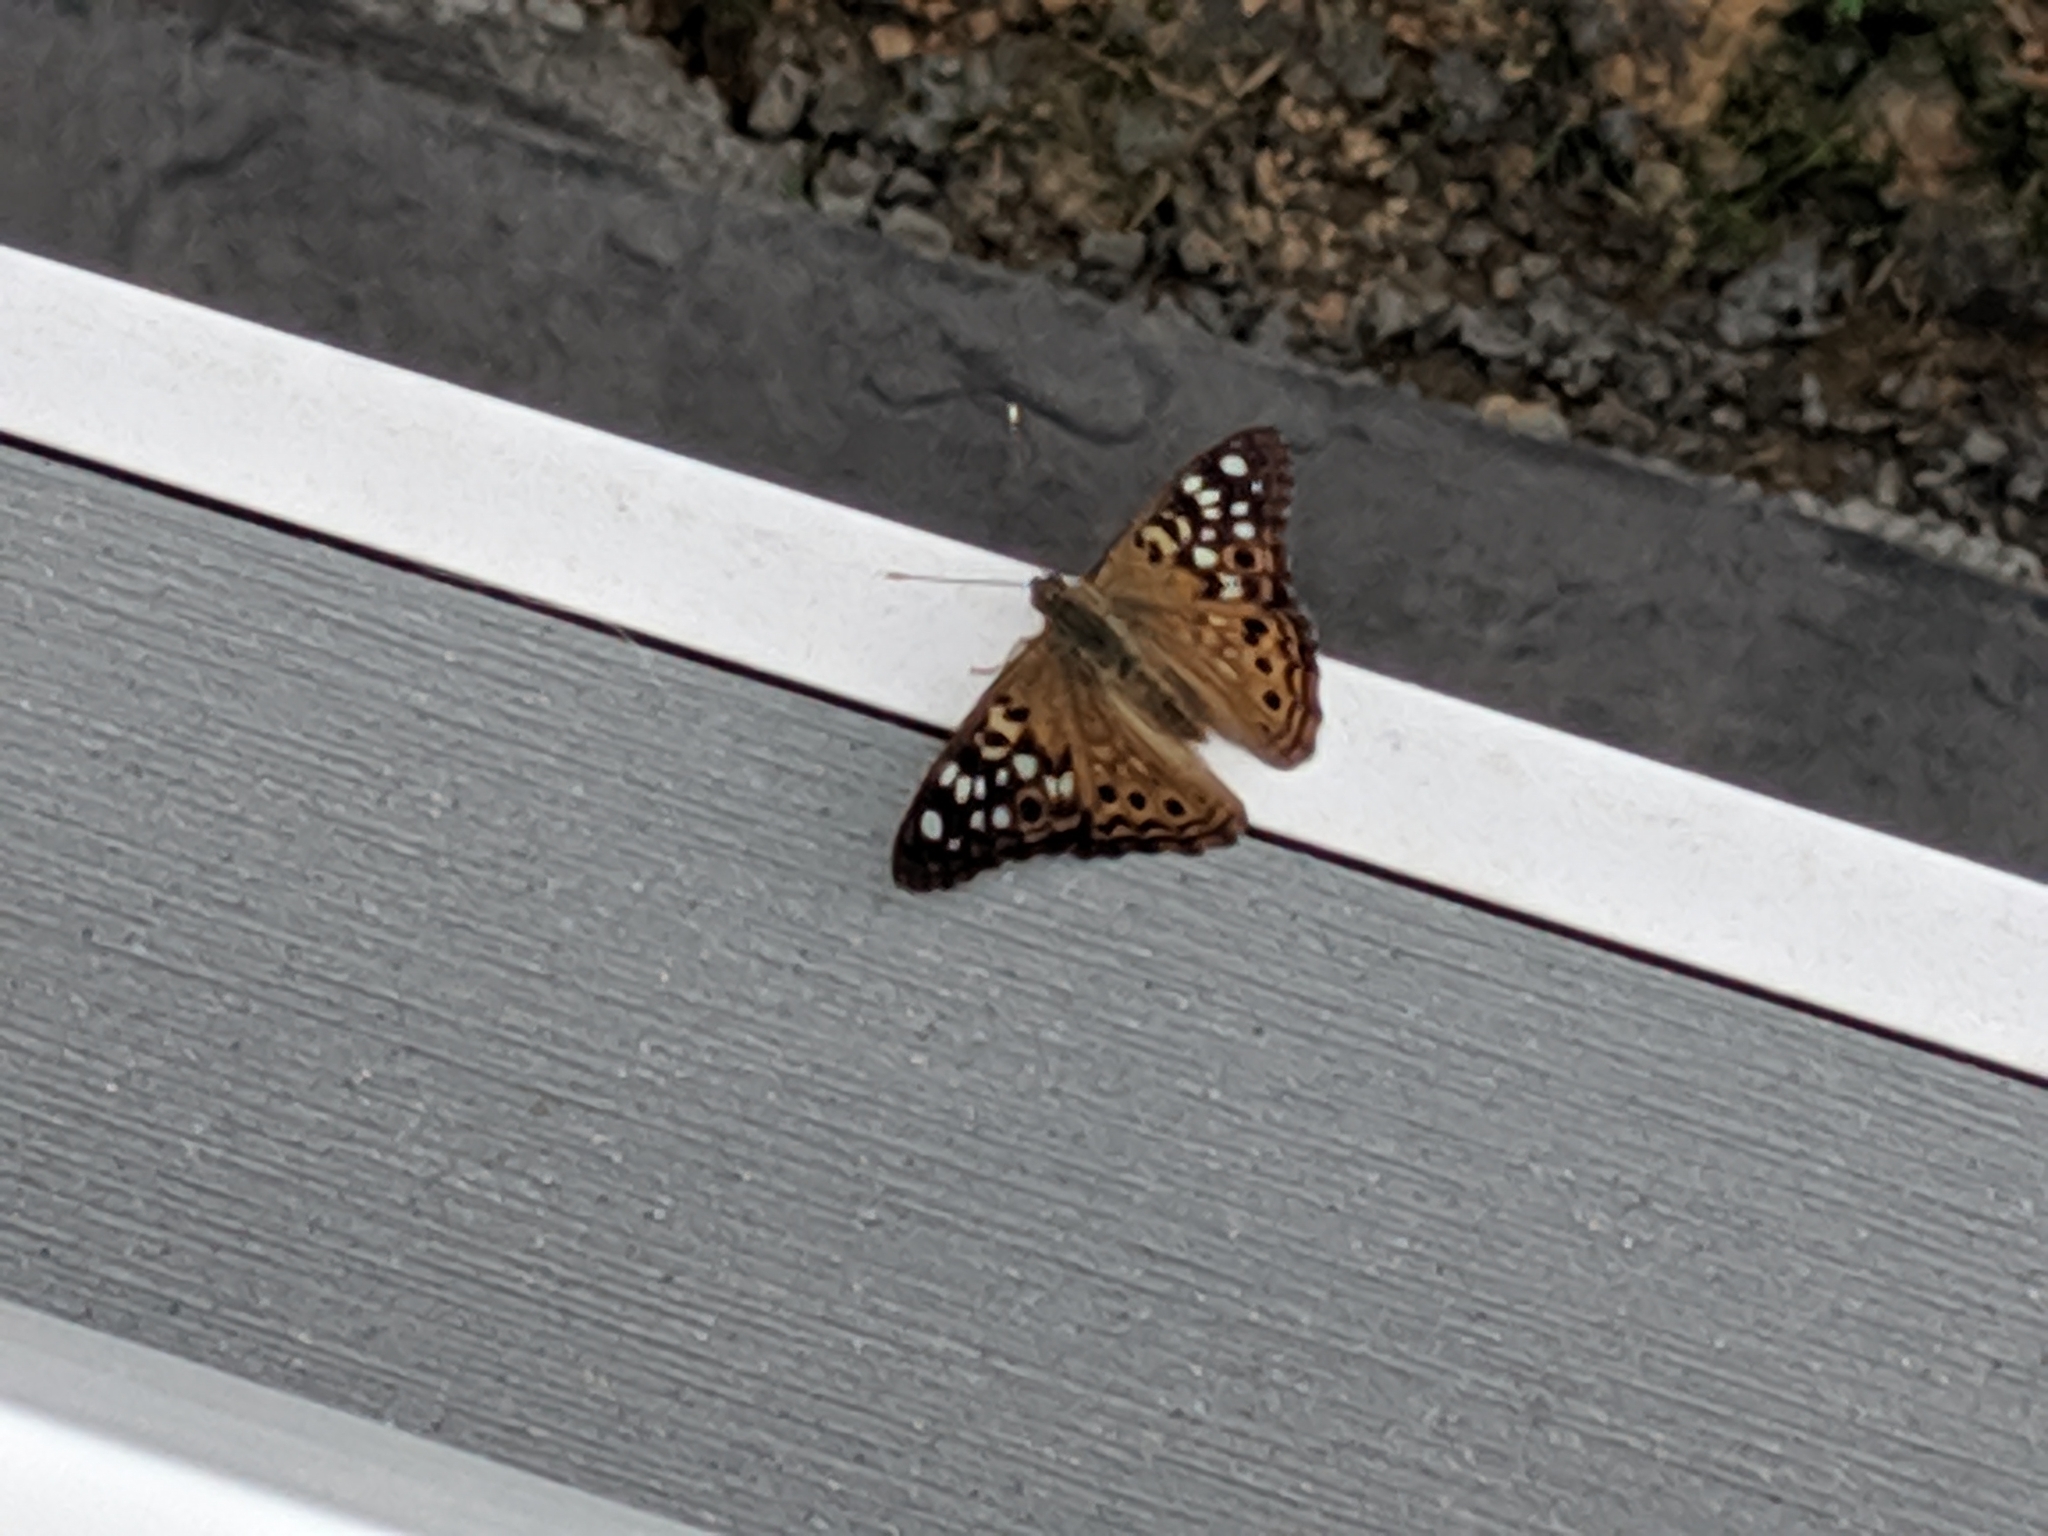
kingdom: Animalia
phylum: Arthropoda
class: Insecta
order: Lepidoptera
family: Nymphalidae
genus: Asterocampa
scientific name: Asterocampa celtis
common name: Hackberry emperor
